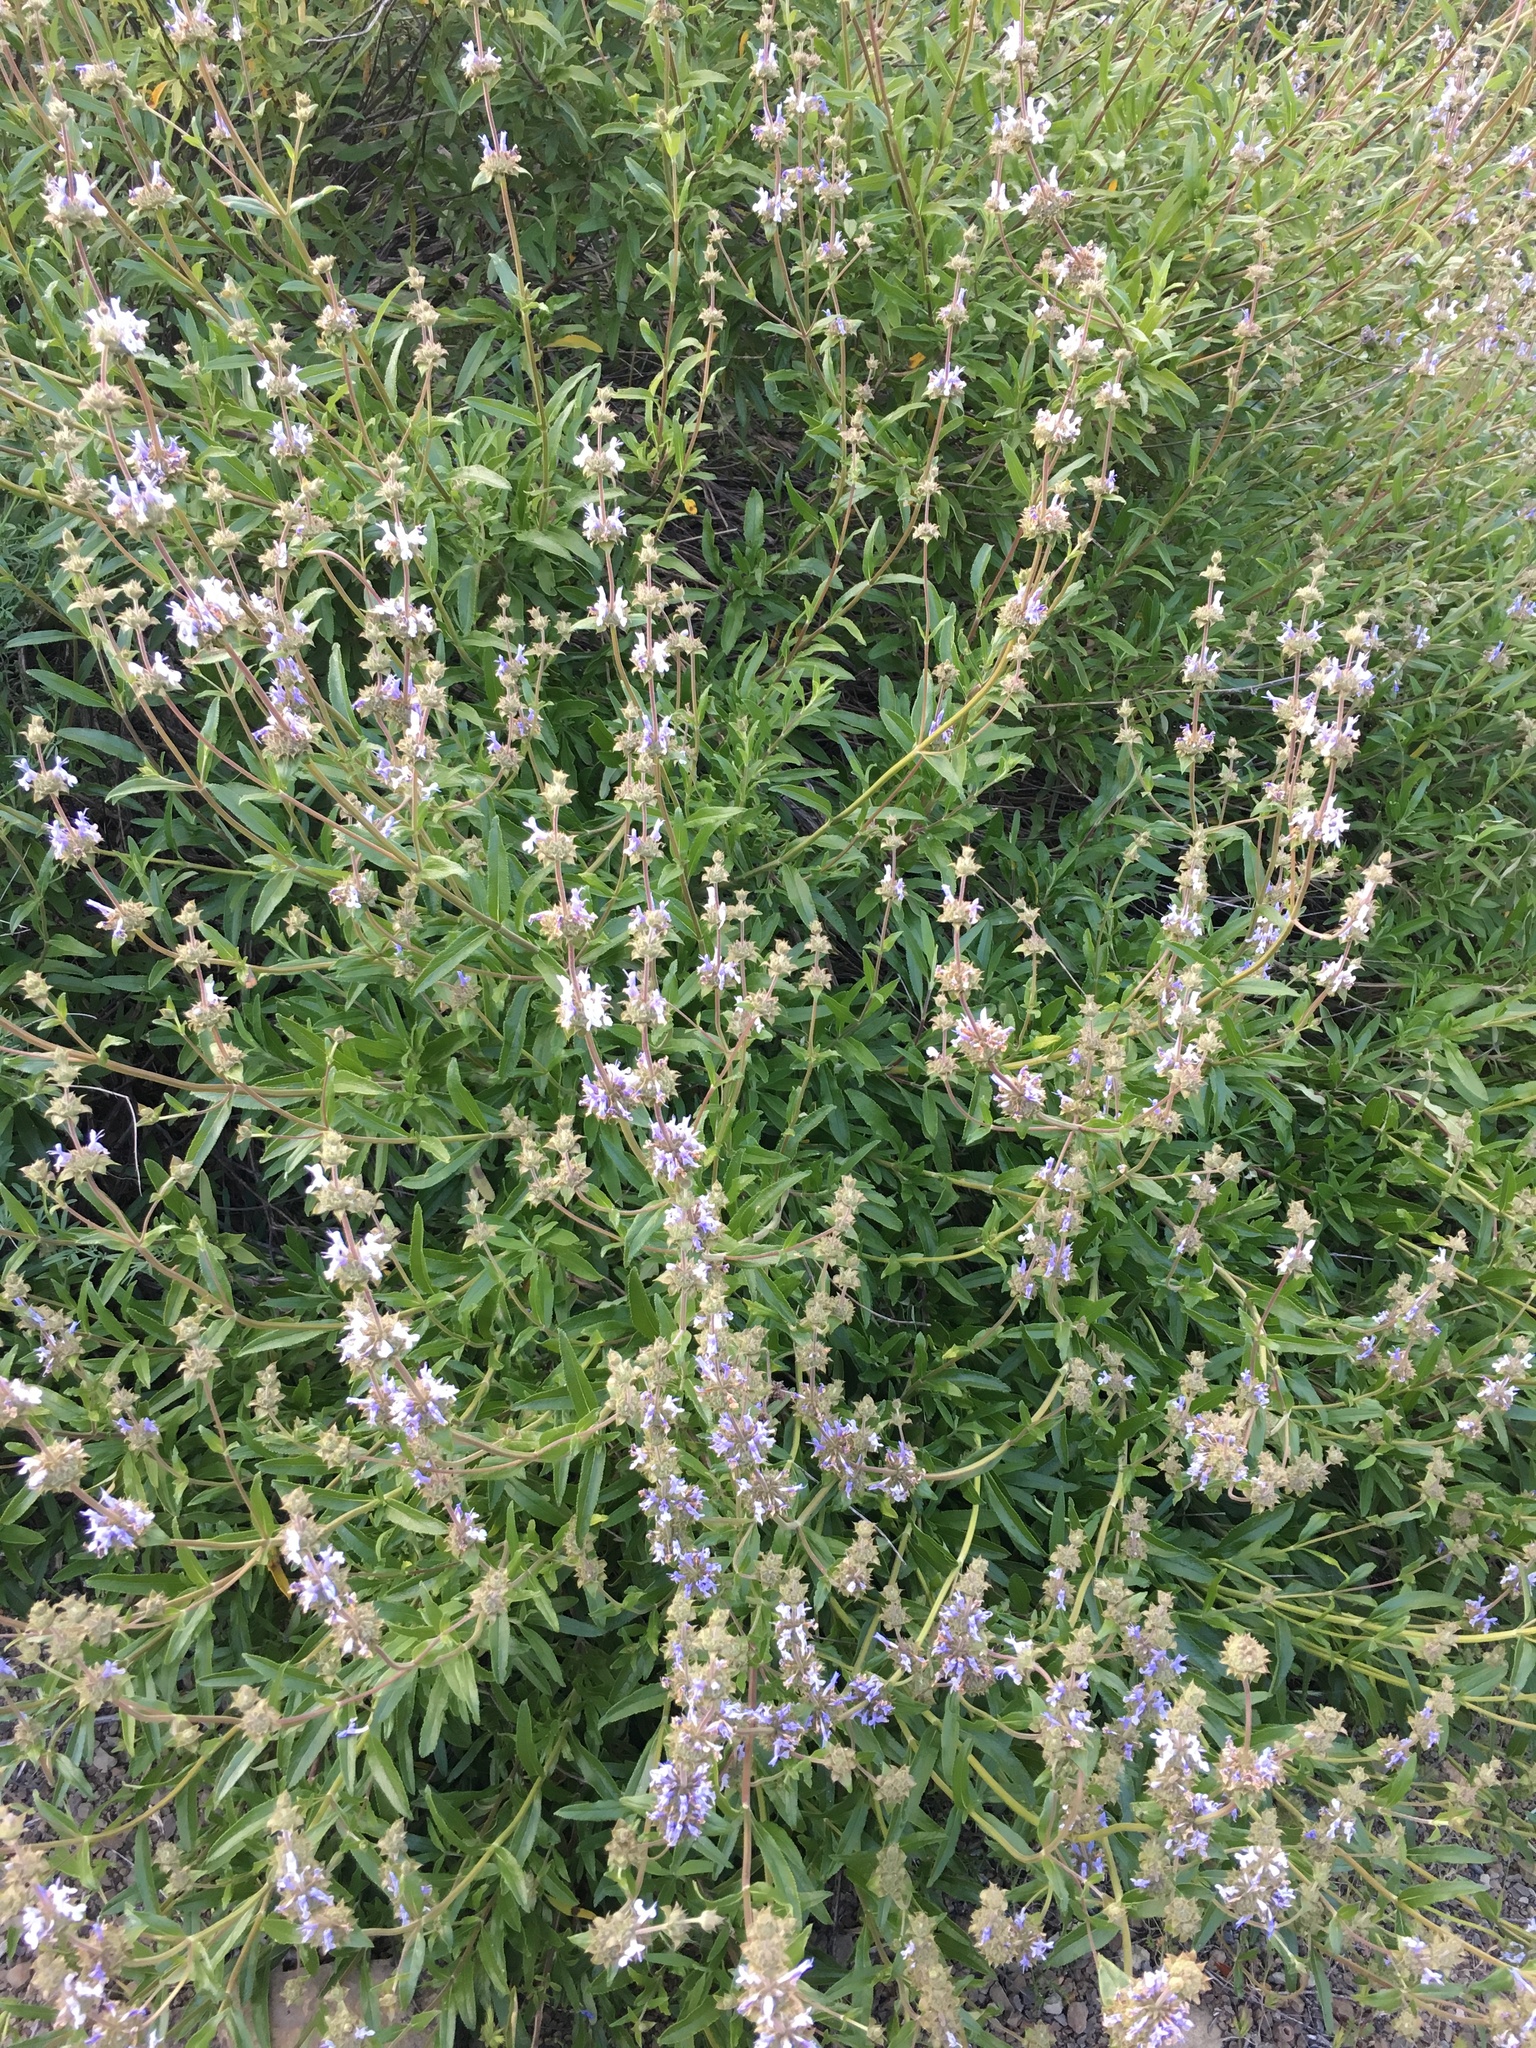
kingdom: Plantae
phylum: Tracheophyta
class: Magnoliopsida
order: Lamiales
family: Lamiaceae
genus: Salvia
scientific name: Salvia mellifera
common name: Black sage
